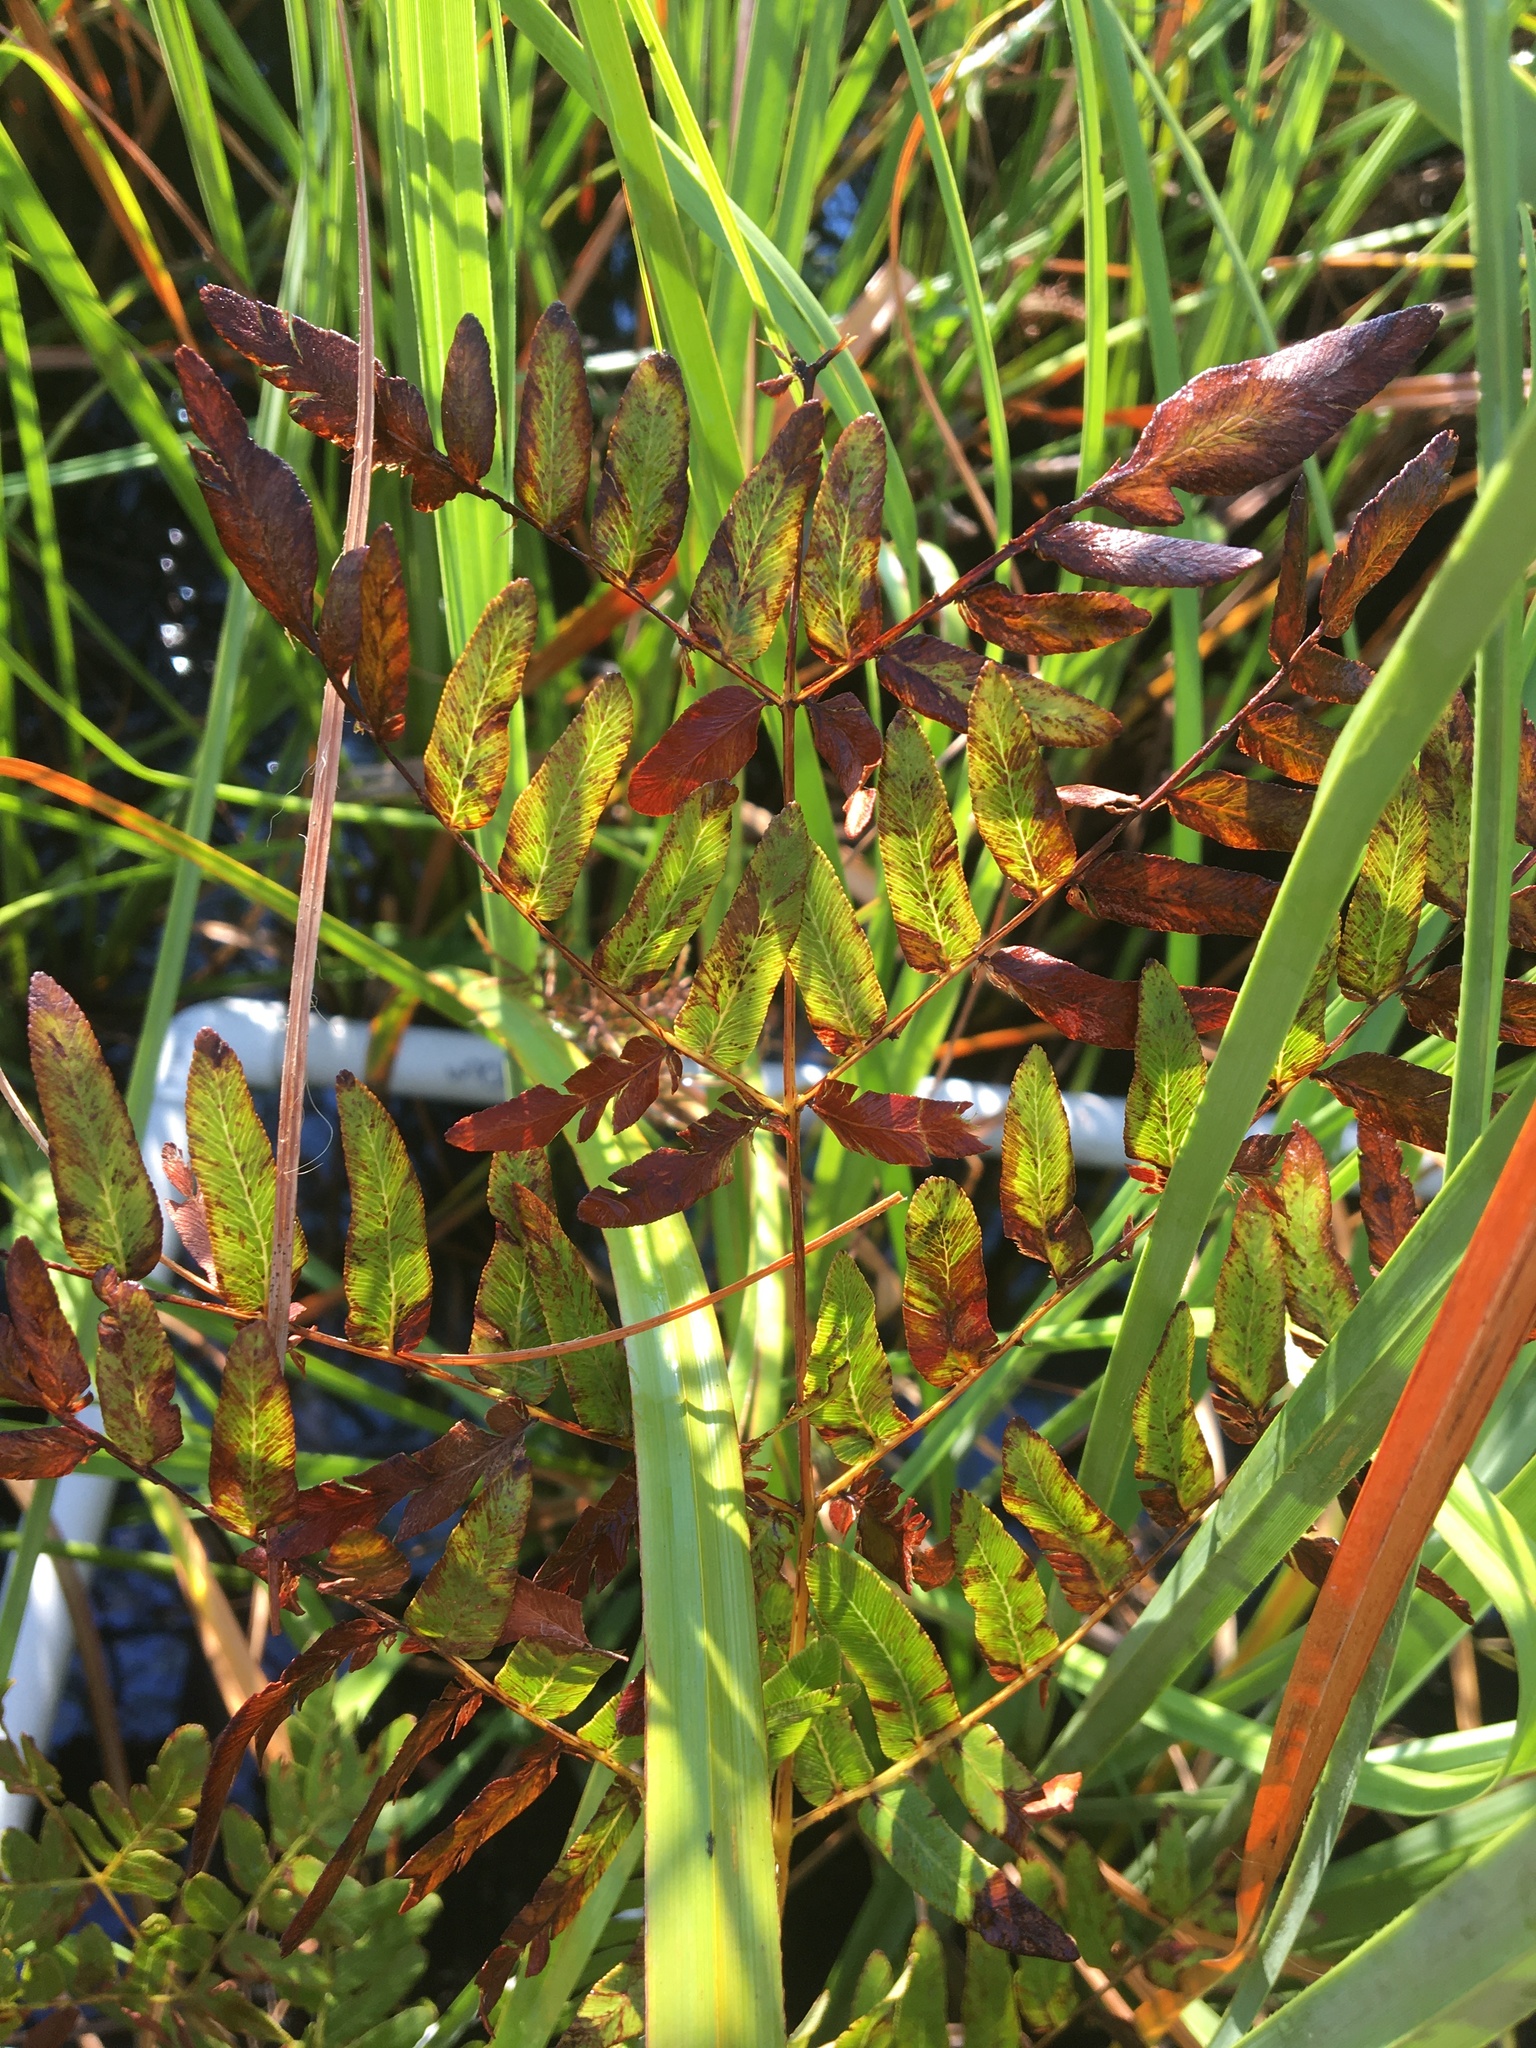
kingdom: Plantae
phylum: Tracheophyta
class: Polypodiopsida
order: Osmundales
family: Osmundaceae
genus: Osmunda
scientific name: Osmunda spectabilis
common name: American royal fern
